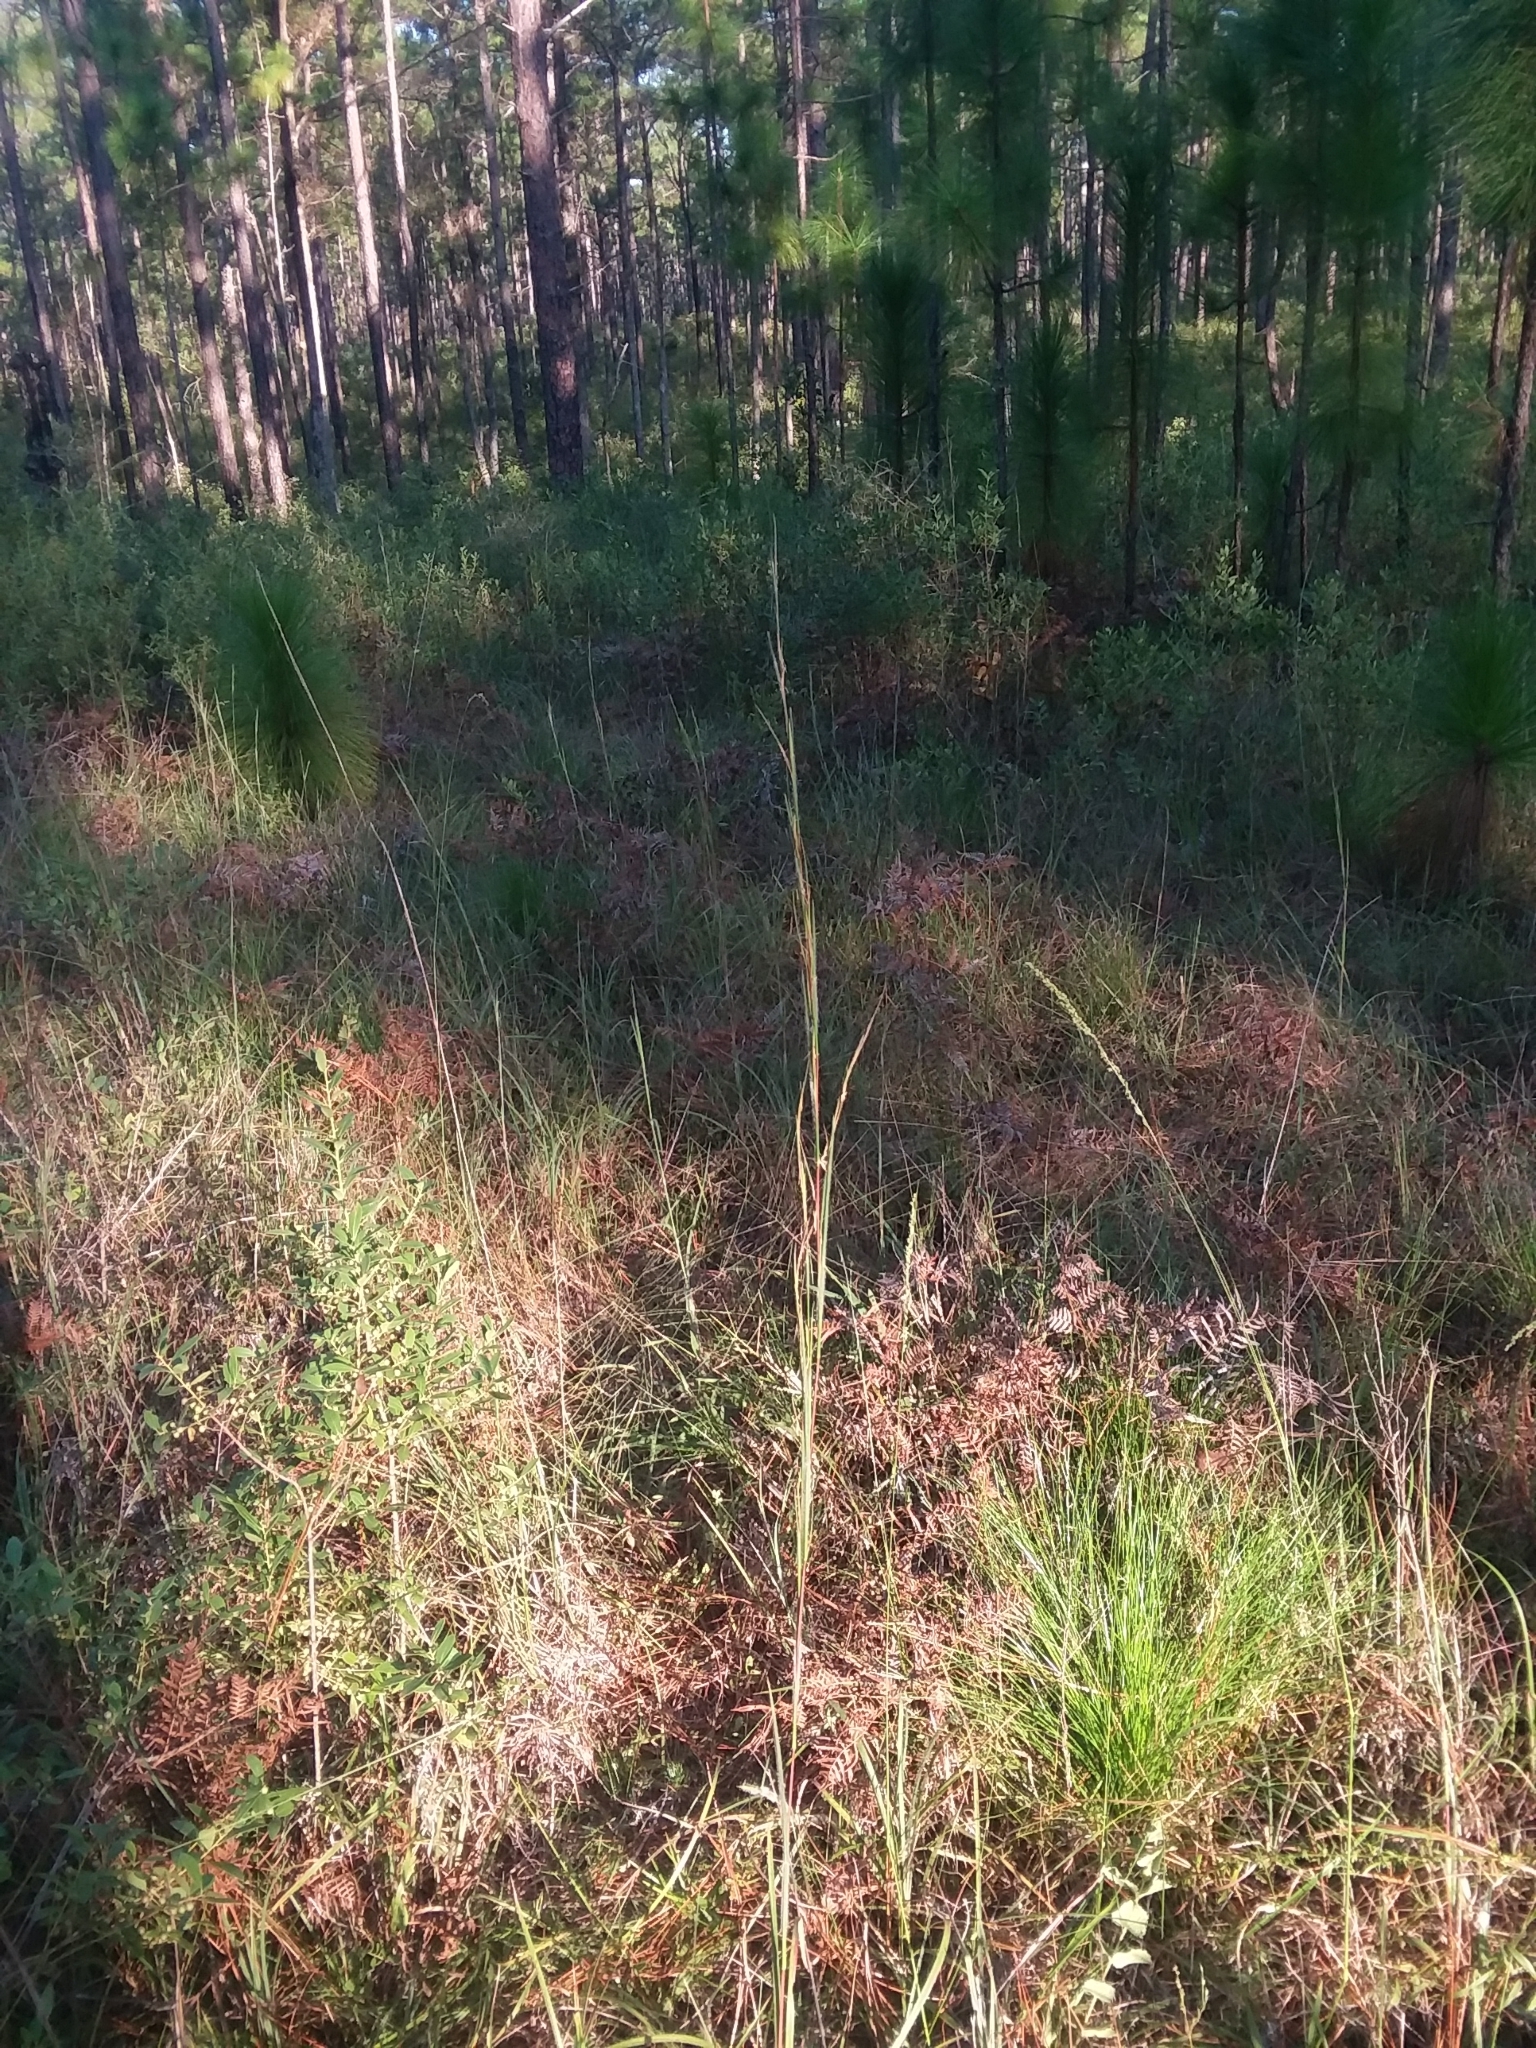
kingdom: Plantae
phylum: Tracheophyta
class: Liliopsida
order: Poales
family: Poaceae
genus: Schizachyrium
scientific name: Schizachyrium scoparium
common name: Little bluestem
